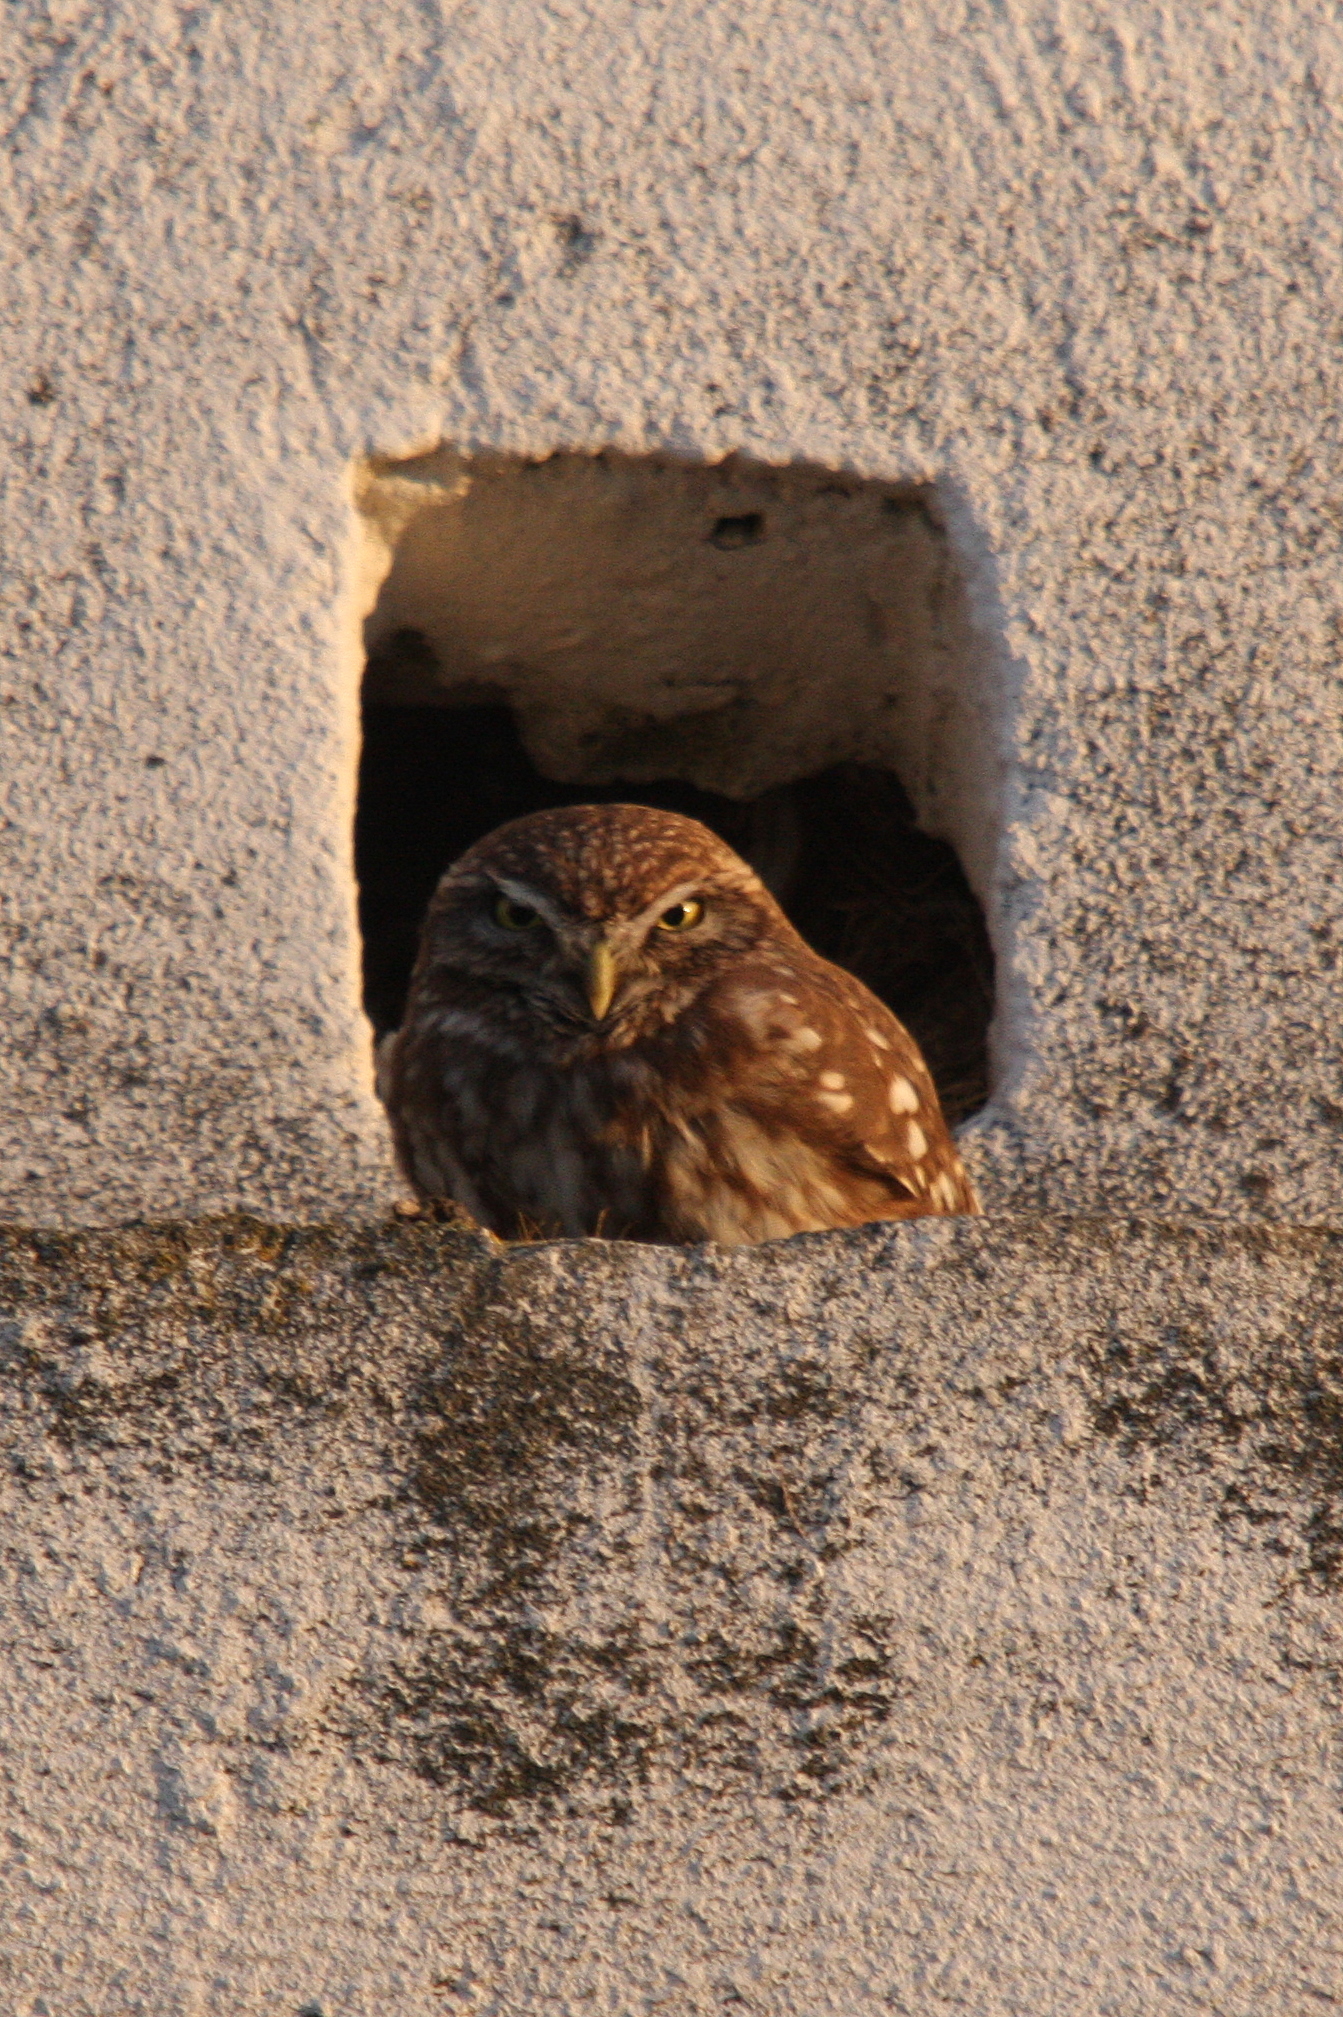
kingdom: Animalia
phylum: Chordata
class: Aves
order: Strigiformes
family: Strigidae
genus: Athene
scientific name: Athene noctua
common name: Little owl
